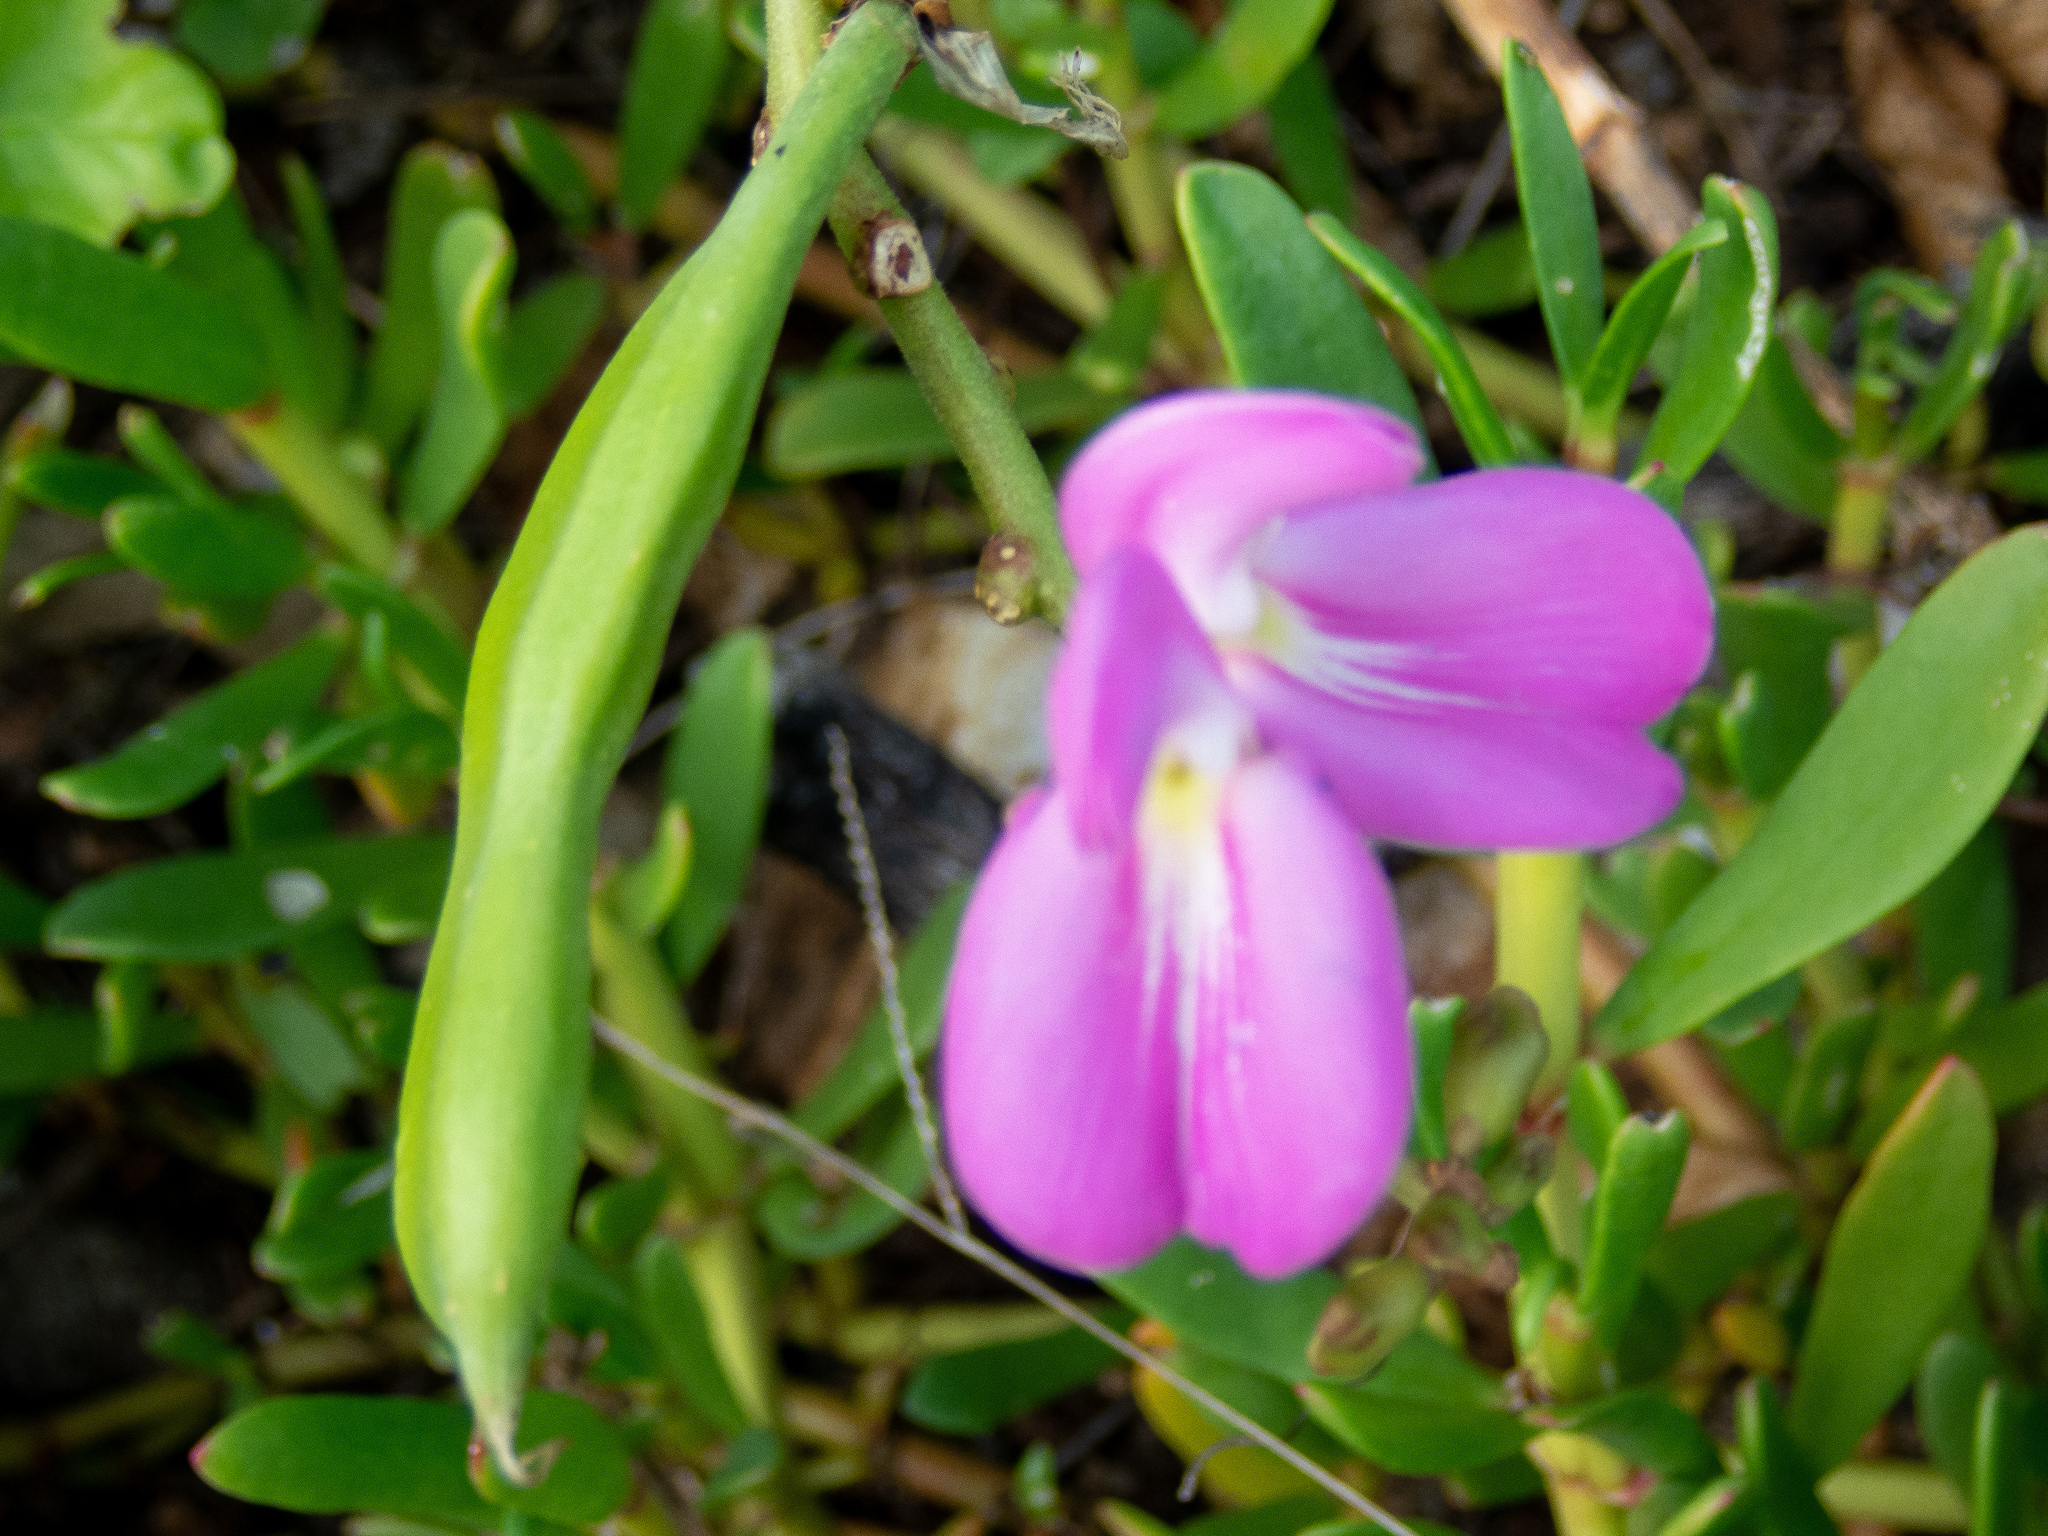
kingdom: Plantae
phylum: Tracheophyta
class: Magnoliopsida
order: Fabales
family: Fabaceae
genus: Canavalia
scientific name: Canavalia rosea
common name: Beach-bean
